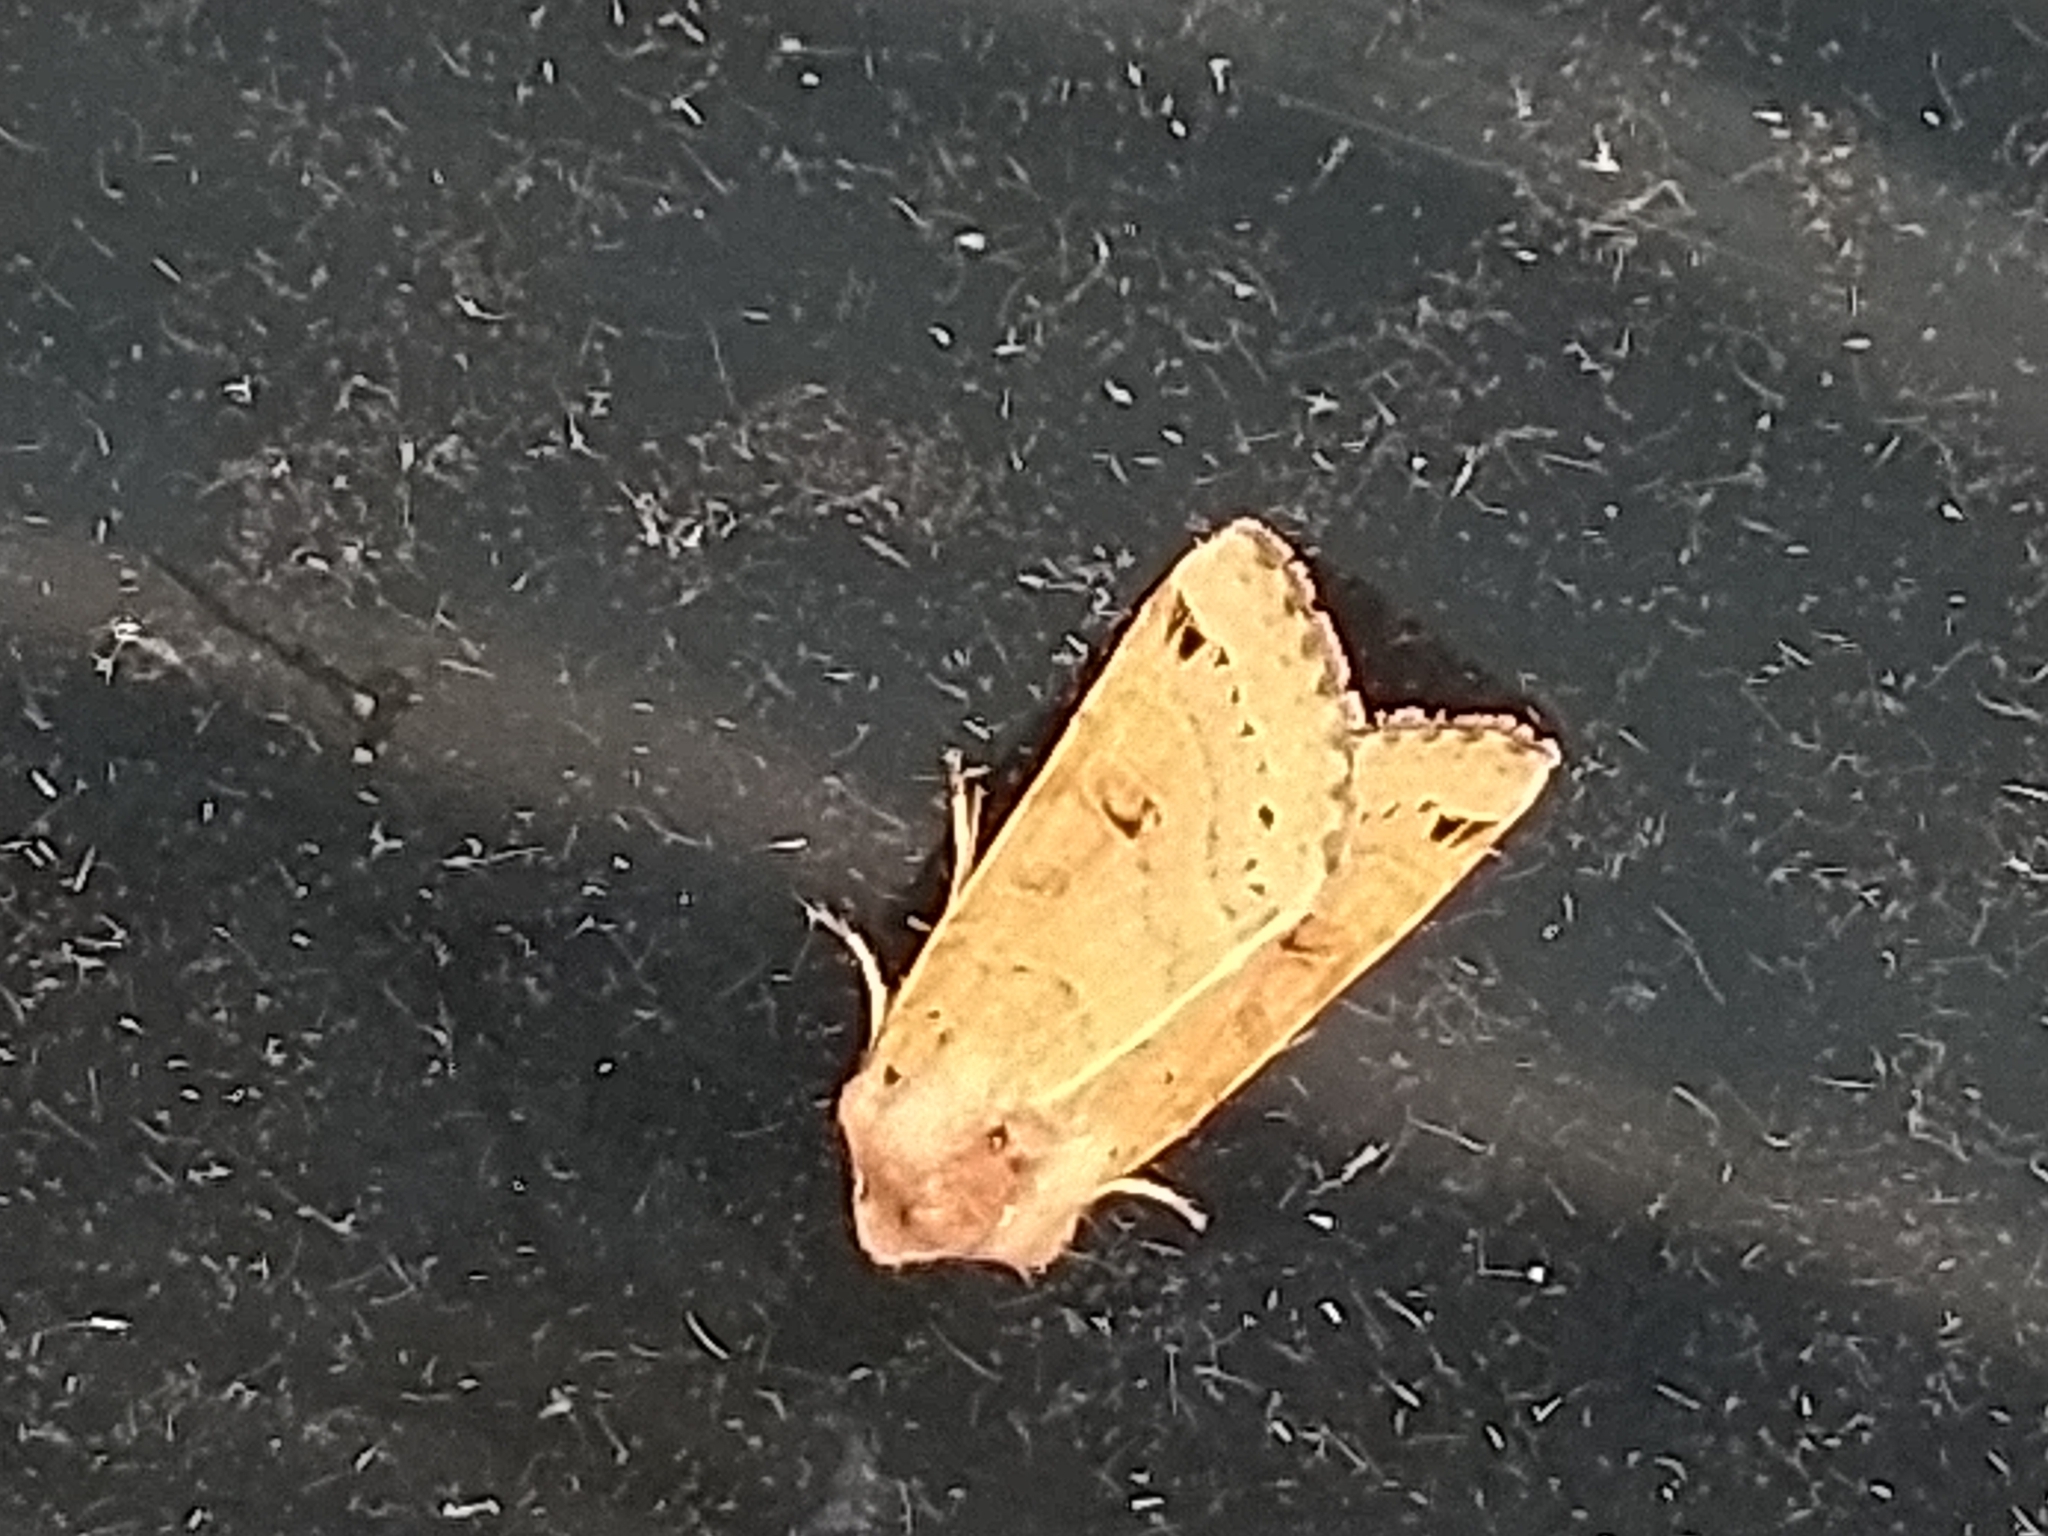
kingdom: Animalia
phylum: Arthropoda
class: Insecta
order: Lepidoptera
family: Noctuidae
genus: Agrochola
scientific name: Agrochola lunosa
